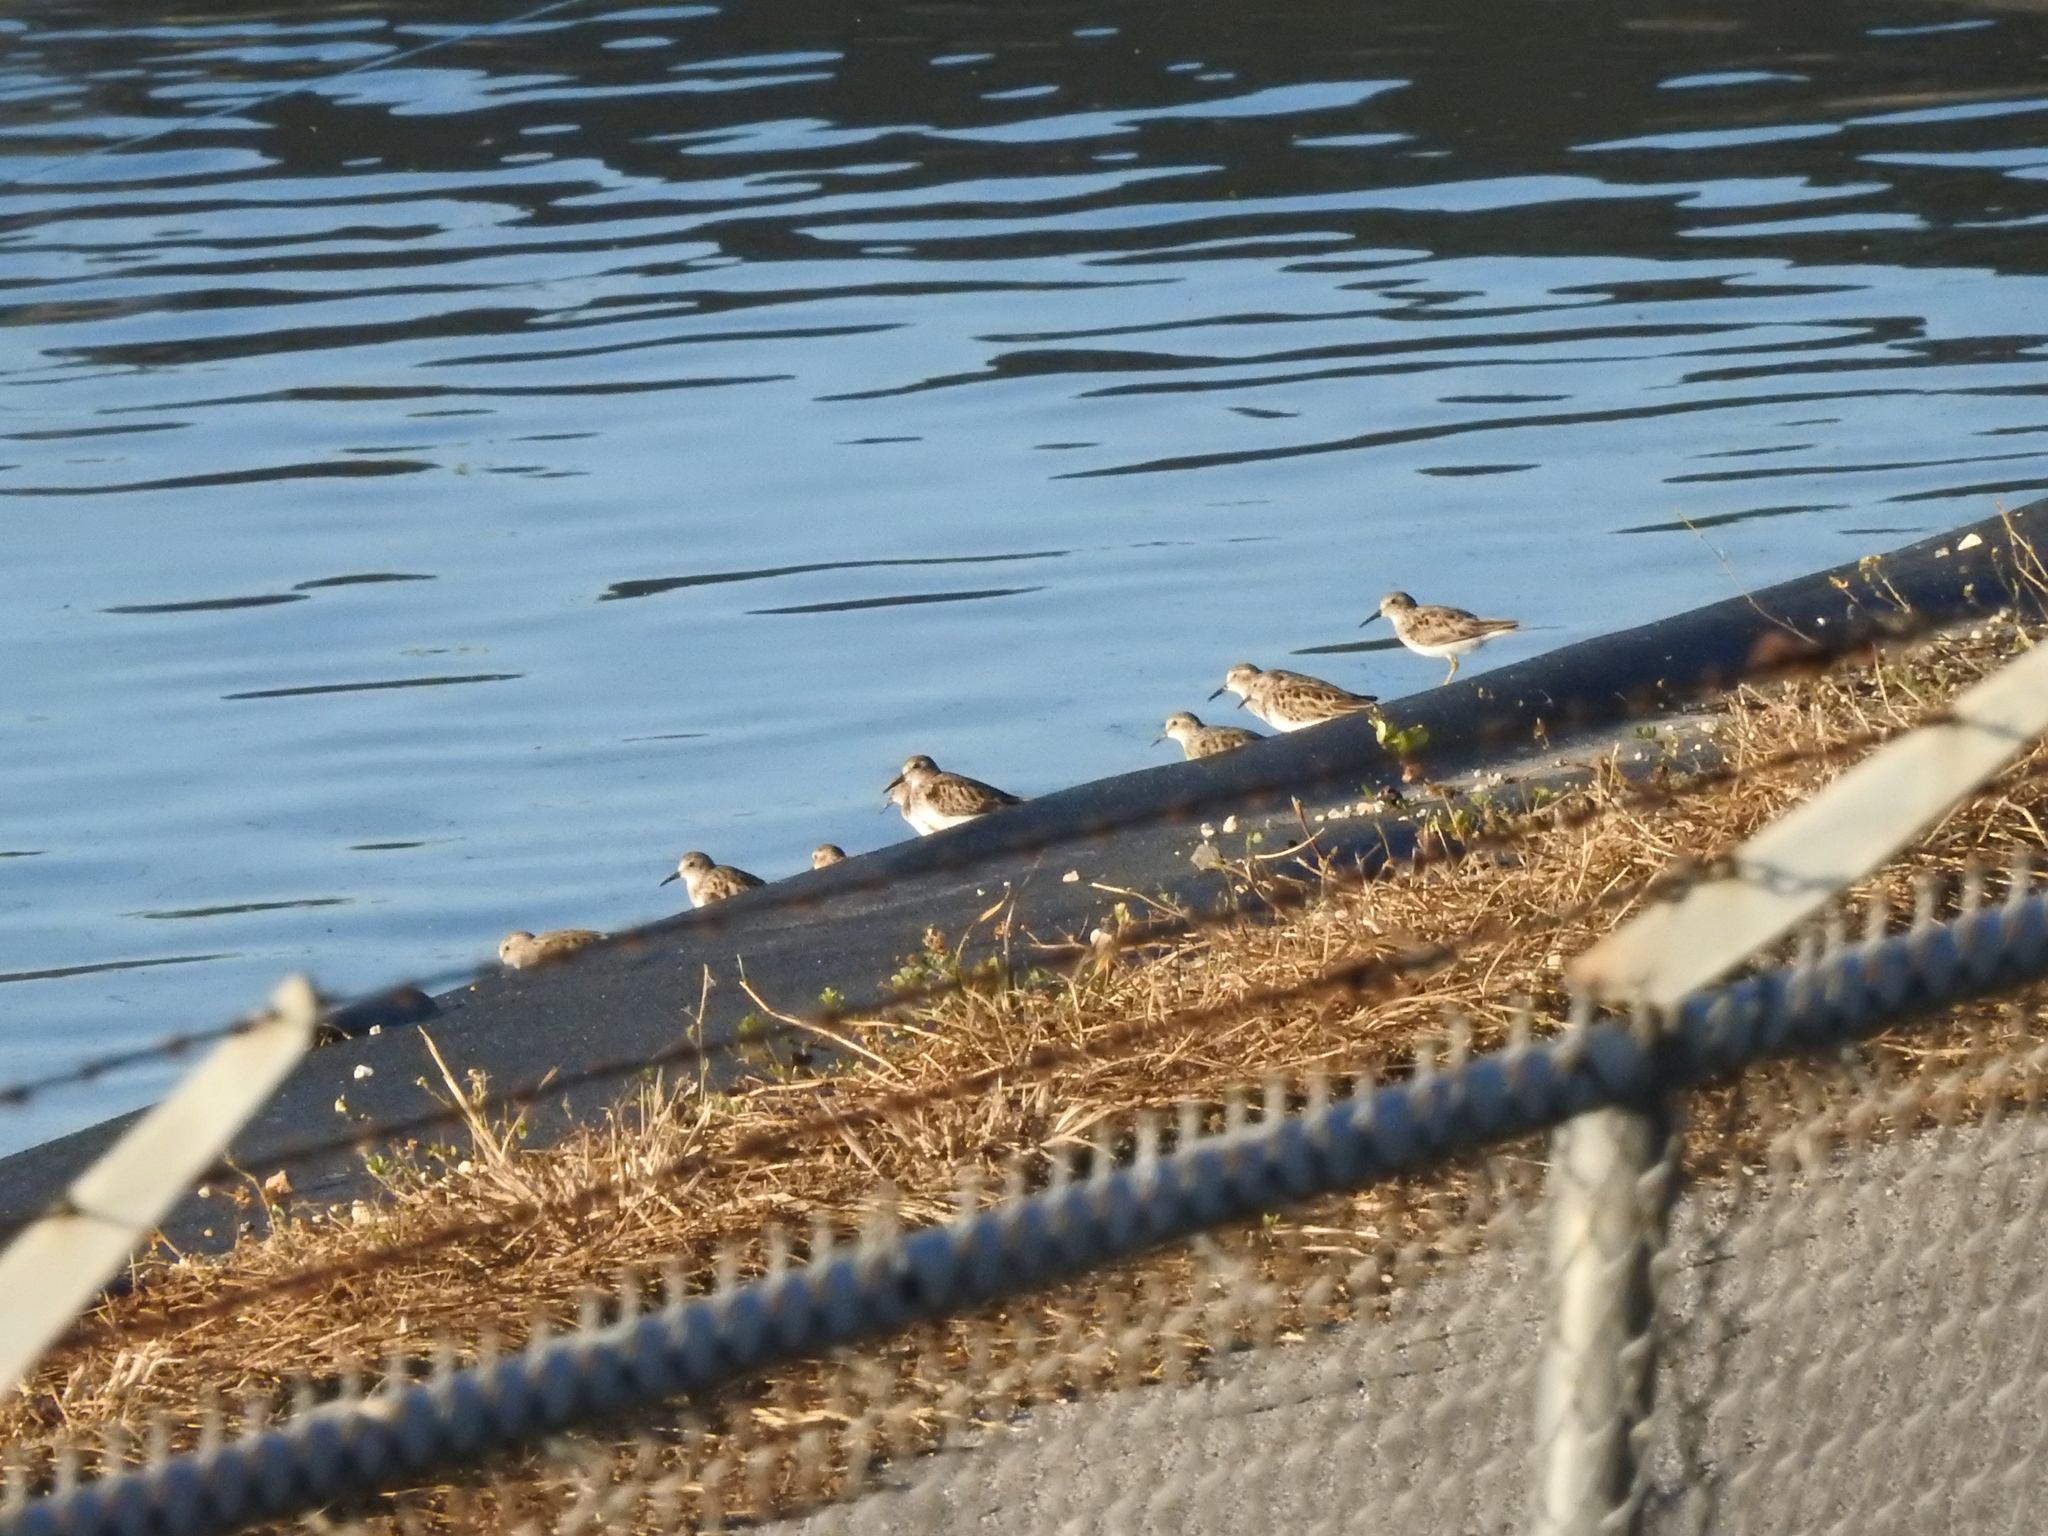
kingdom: Animalia
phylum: Chordata
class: Aves
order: Charadriiformes
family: Scolopacidae
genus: Calidris
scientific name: Calidris minutilla
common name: Least sandpiper
